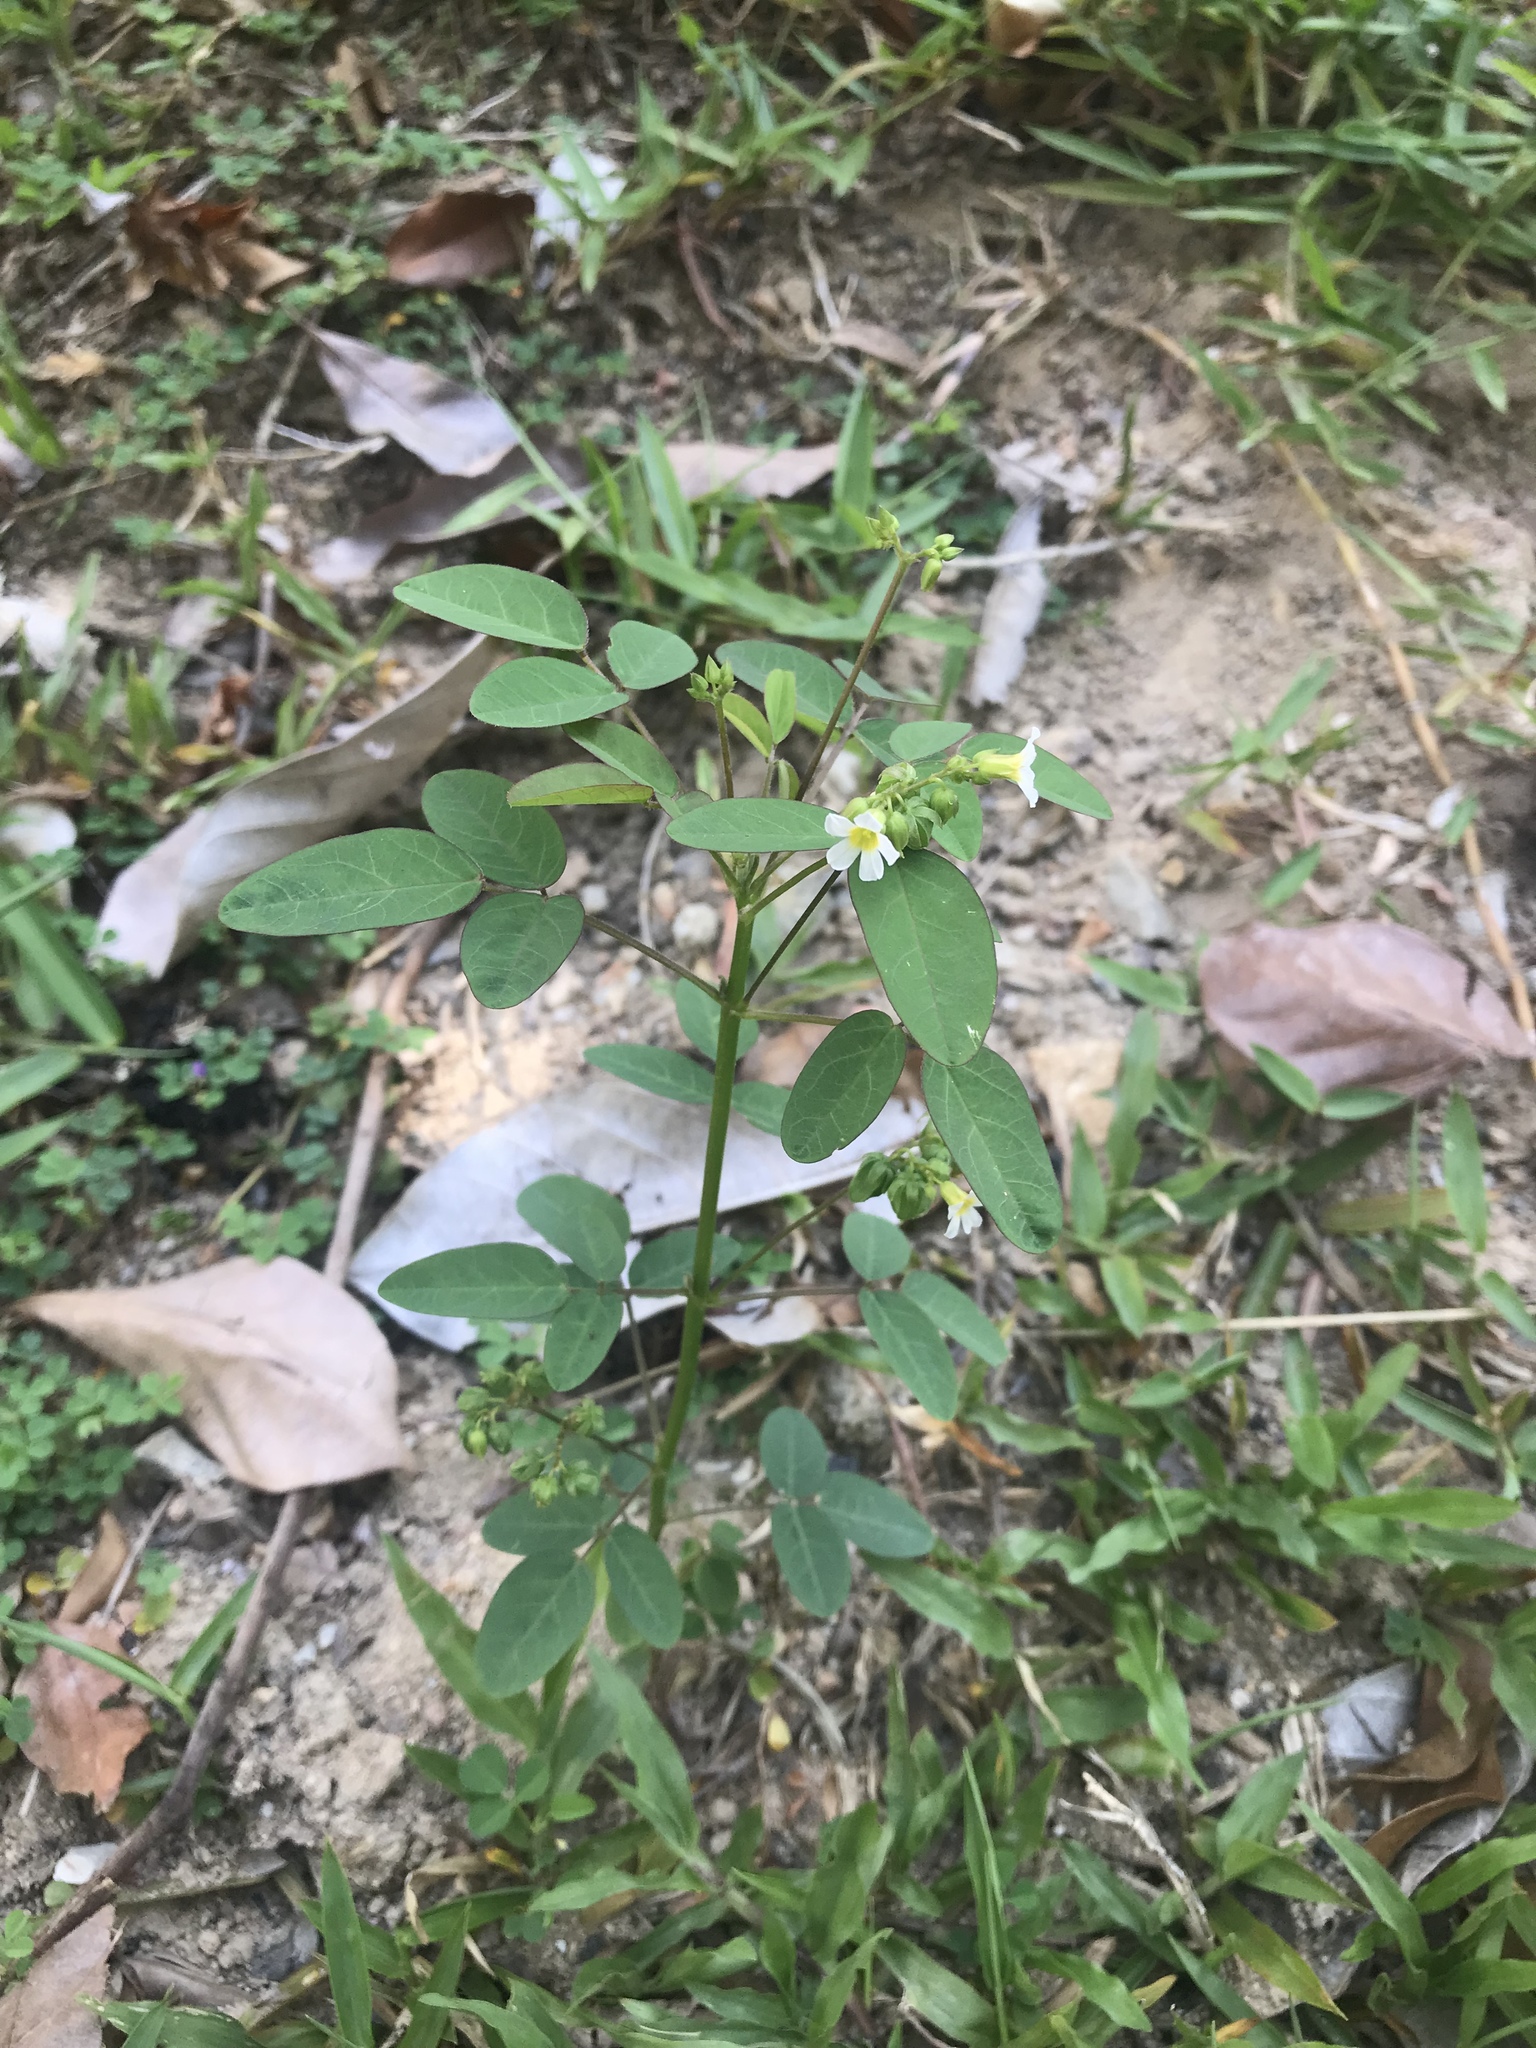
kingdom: Plantae
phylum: Tracheophyta
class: Magnoliopsida
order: Oxalidales
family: Oxalidaceae
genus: Oxalis
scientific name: Oxalis barrelieri
